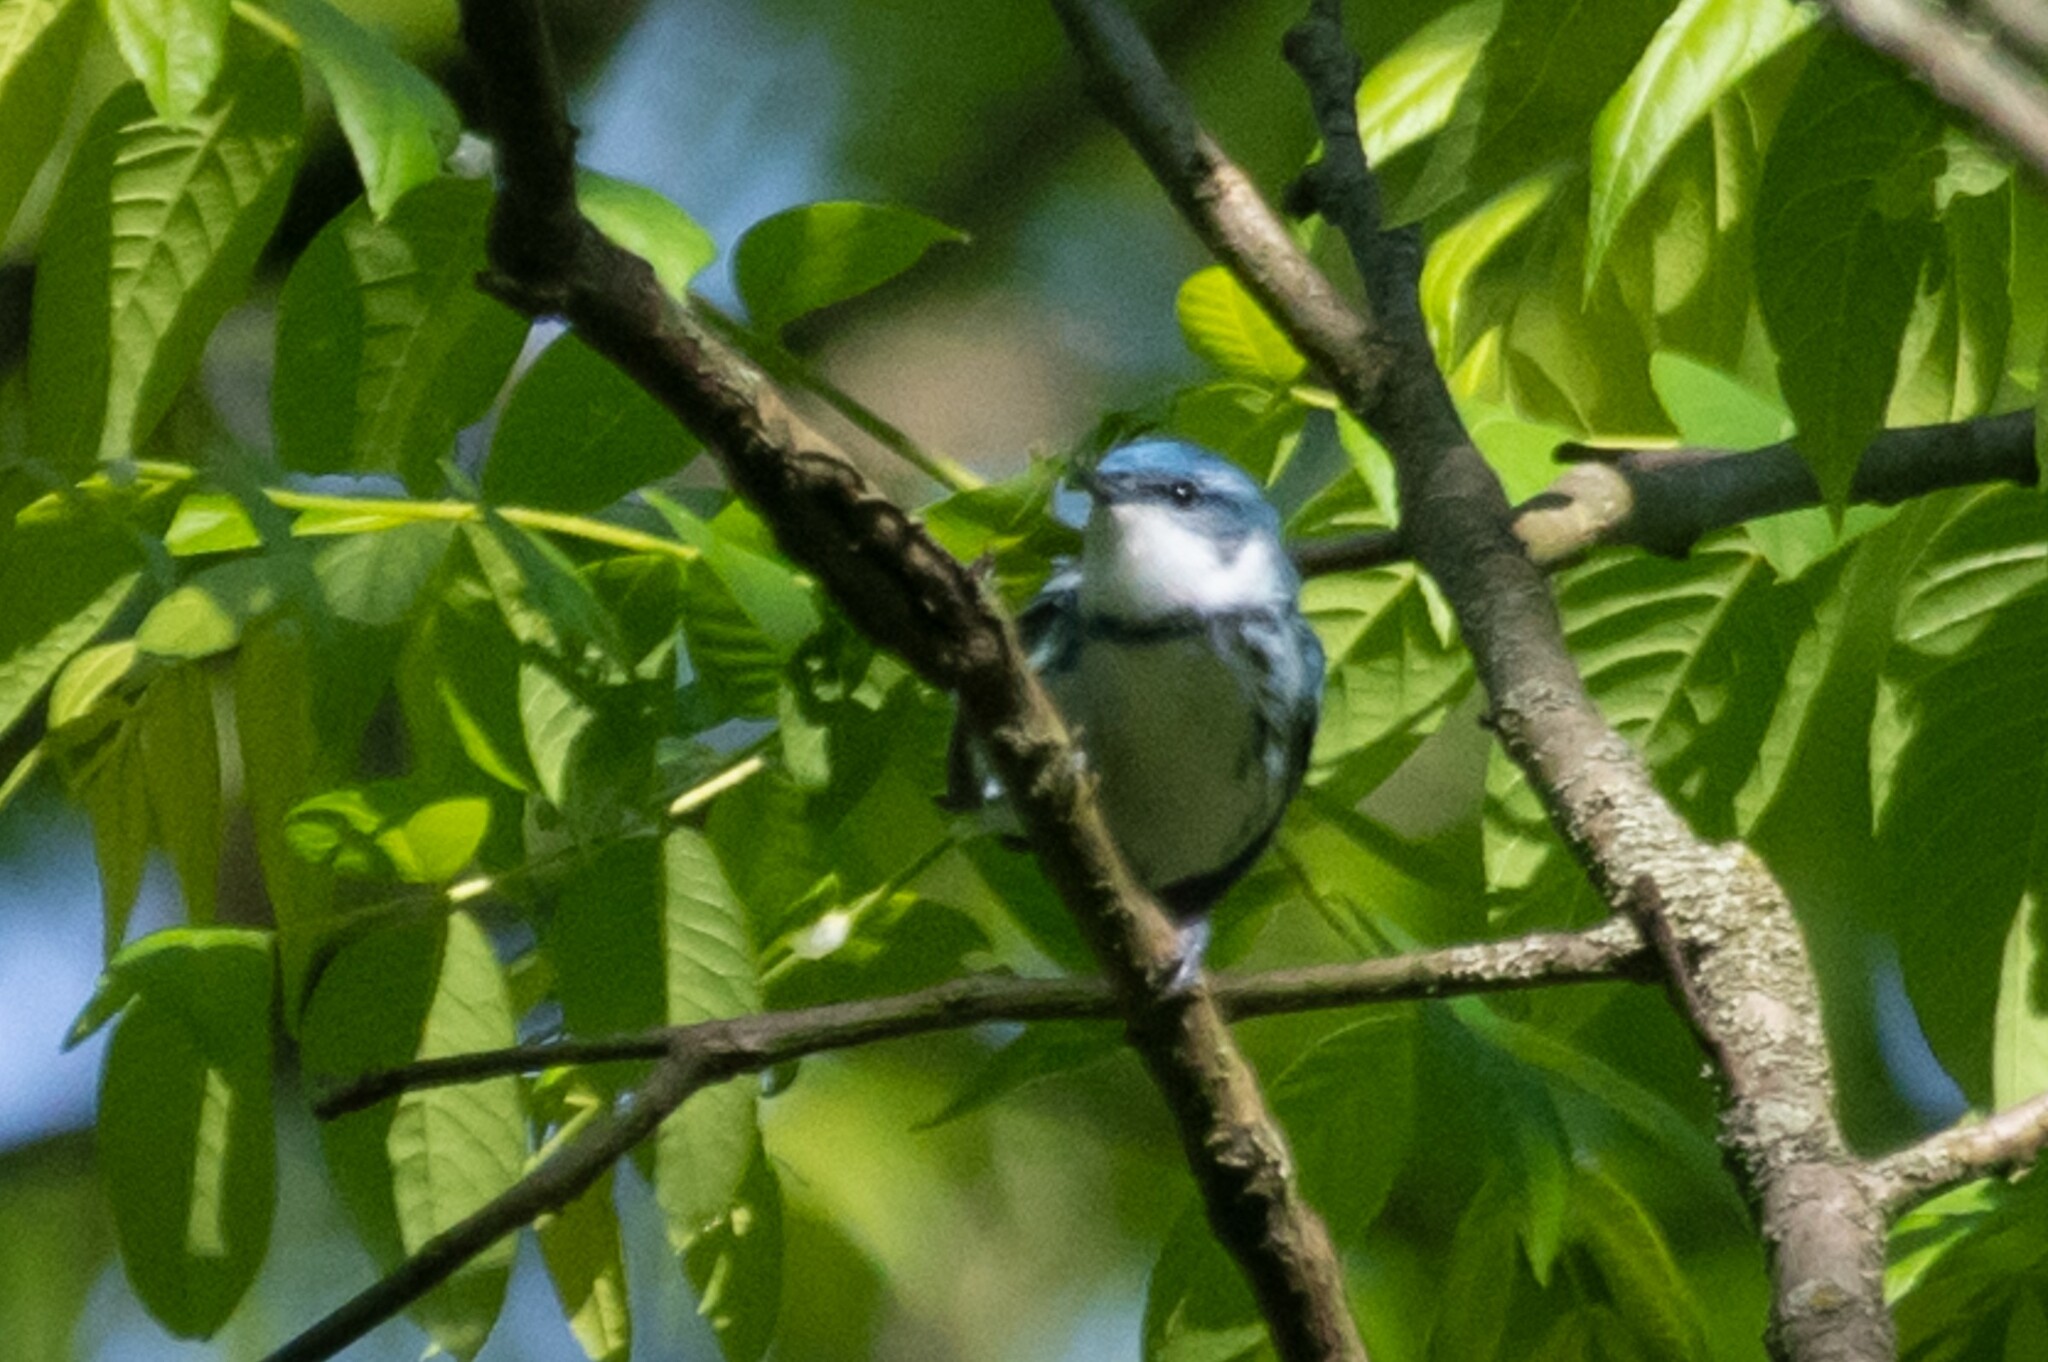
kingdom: Animalia
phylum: Chordata
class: Aves
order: Passeriformes
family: Parulidae
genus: Setophaga
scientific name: Setophaga cerulea
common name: Cerulean warbler
